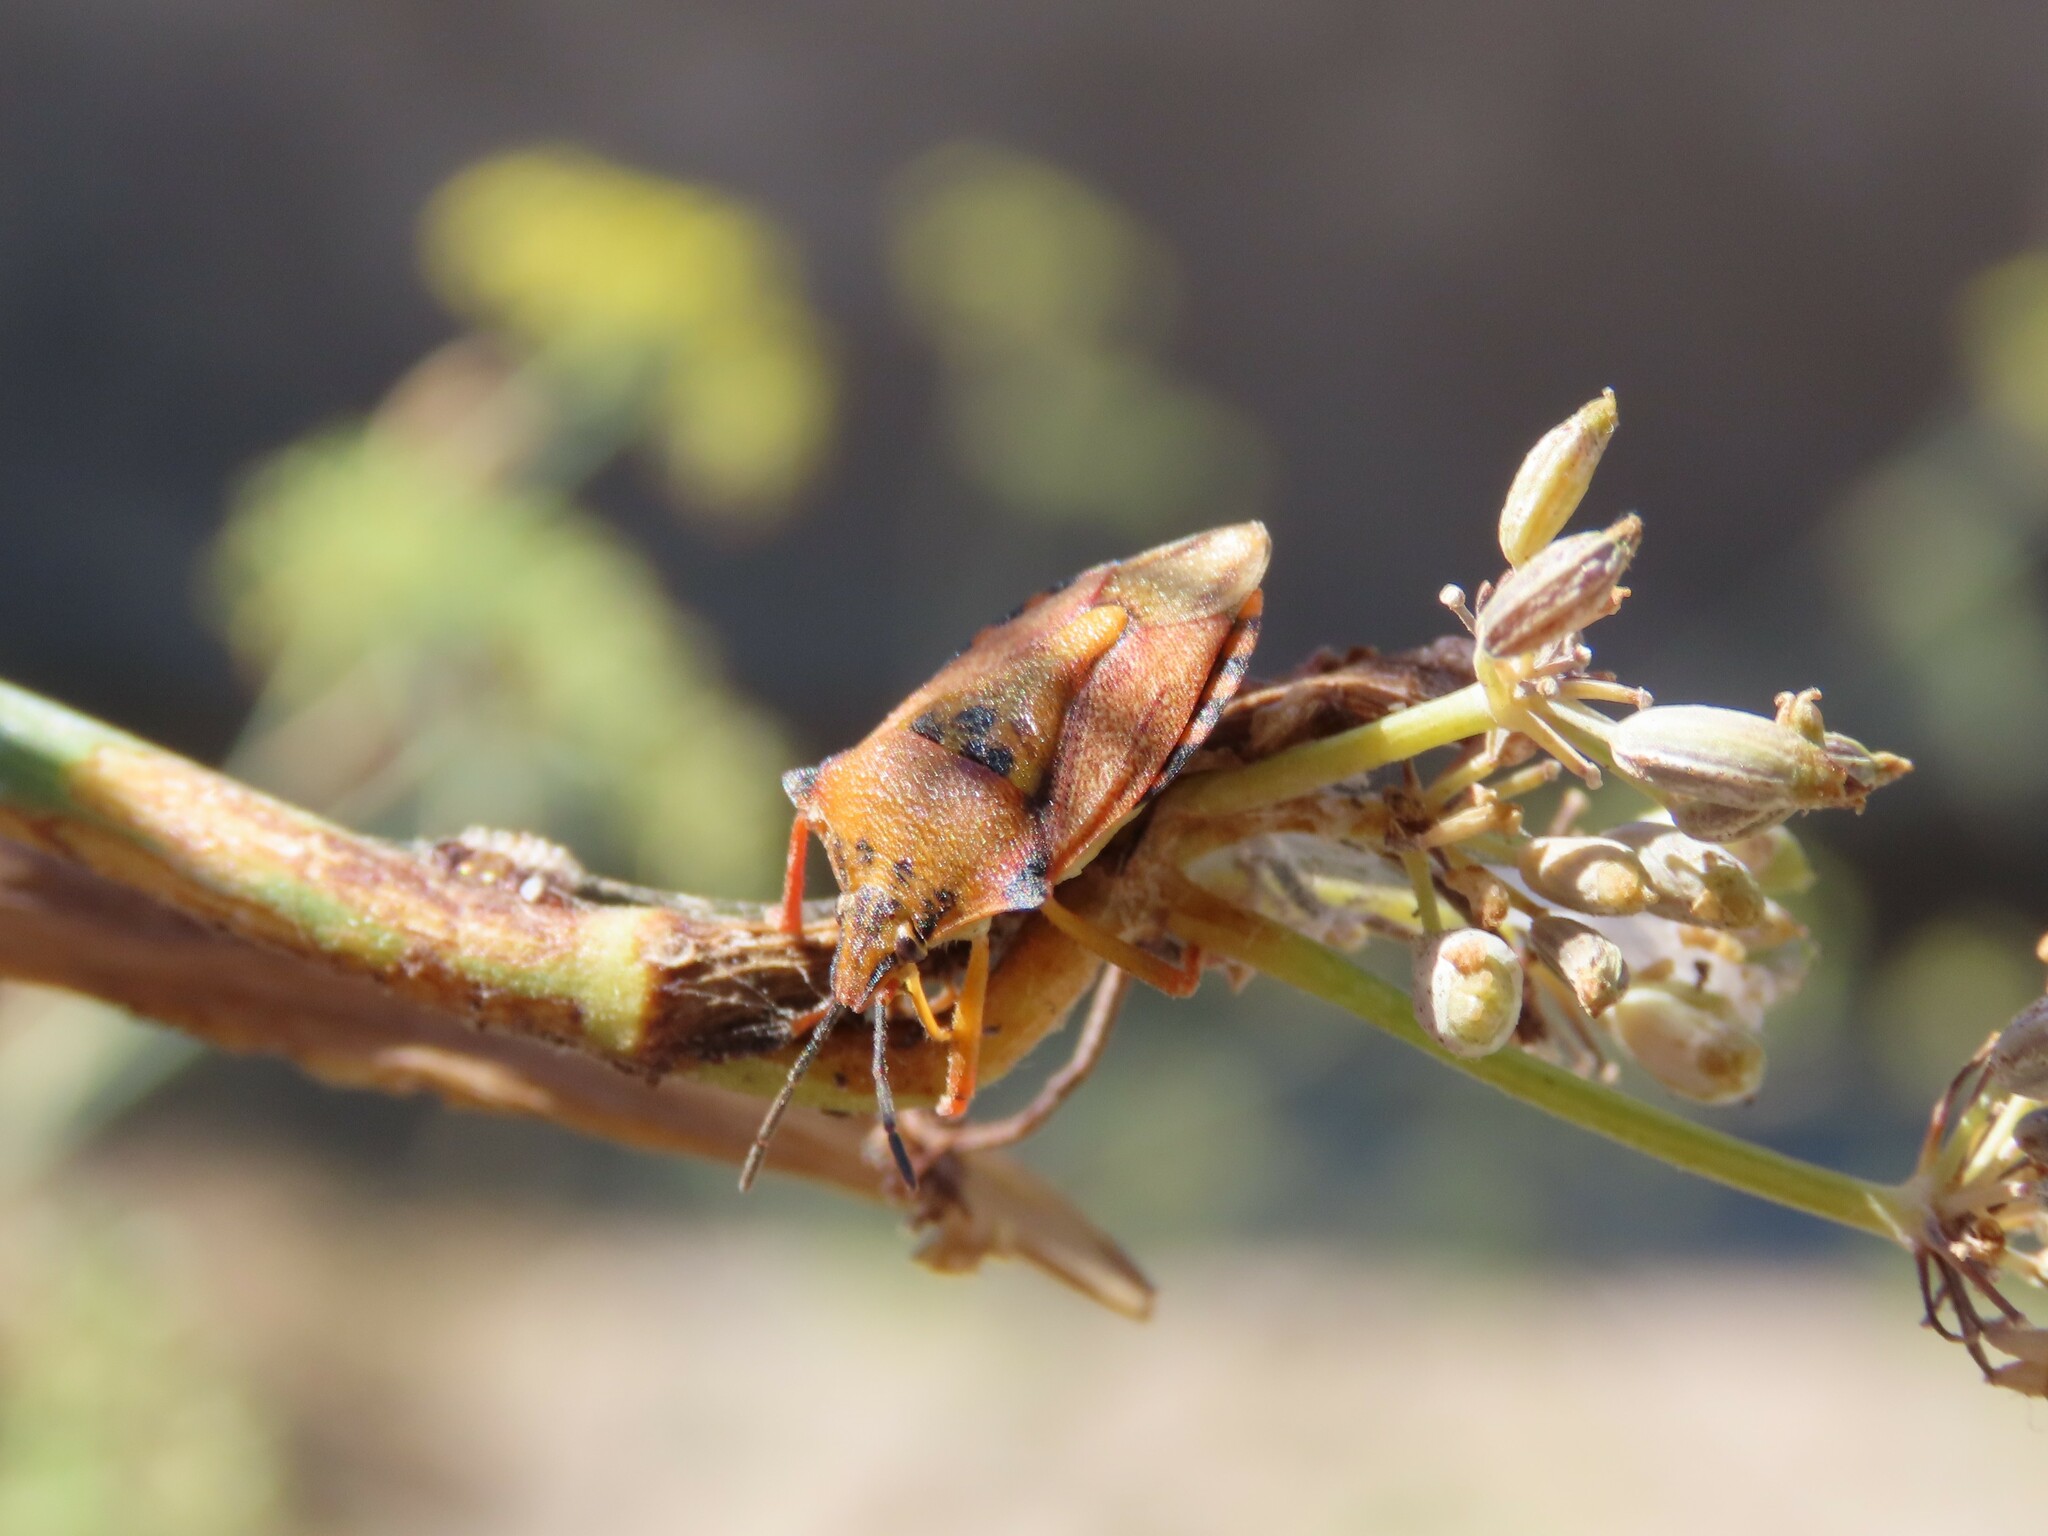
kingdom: Animalia
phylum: Arthropoda
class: Insecta
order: Hemiptera
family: Pentatomidae
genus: Carpocoris
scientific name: Carpocoris mediterraneus
